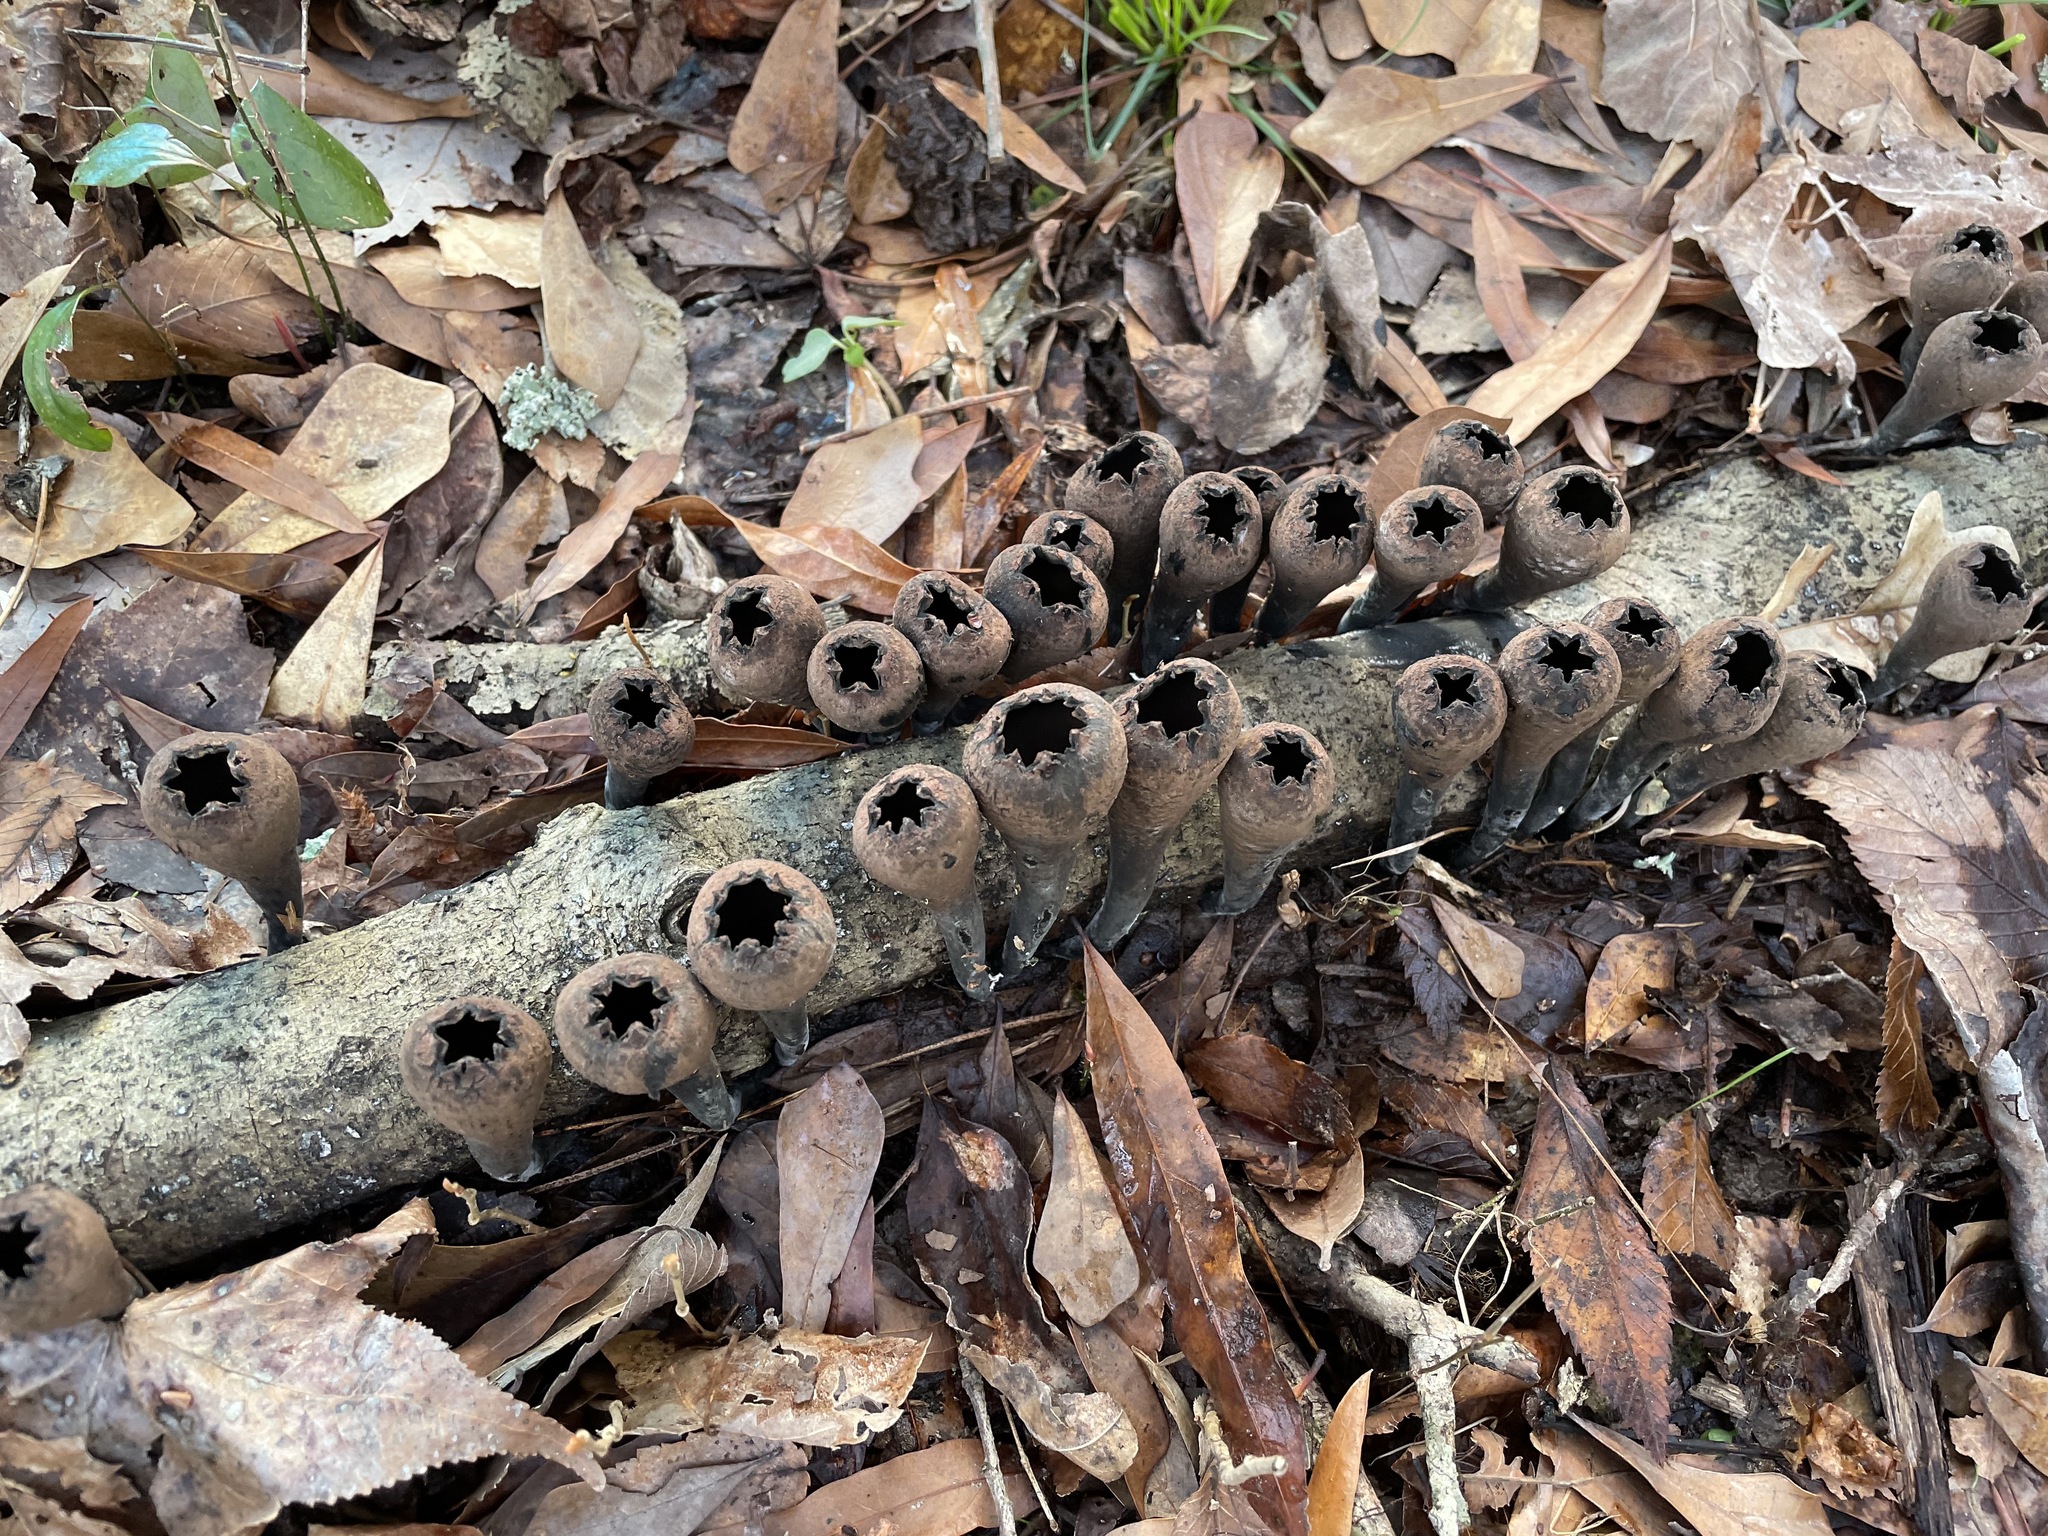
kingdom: Fungi
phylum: Ascomycota
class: Pezizomycetes
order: Pezizales
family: Sarcosomataceae
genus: Urnula
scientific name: Urnula craterium
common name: Devil's urn
